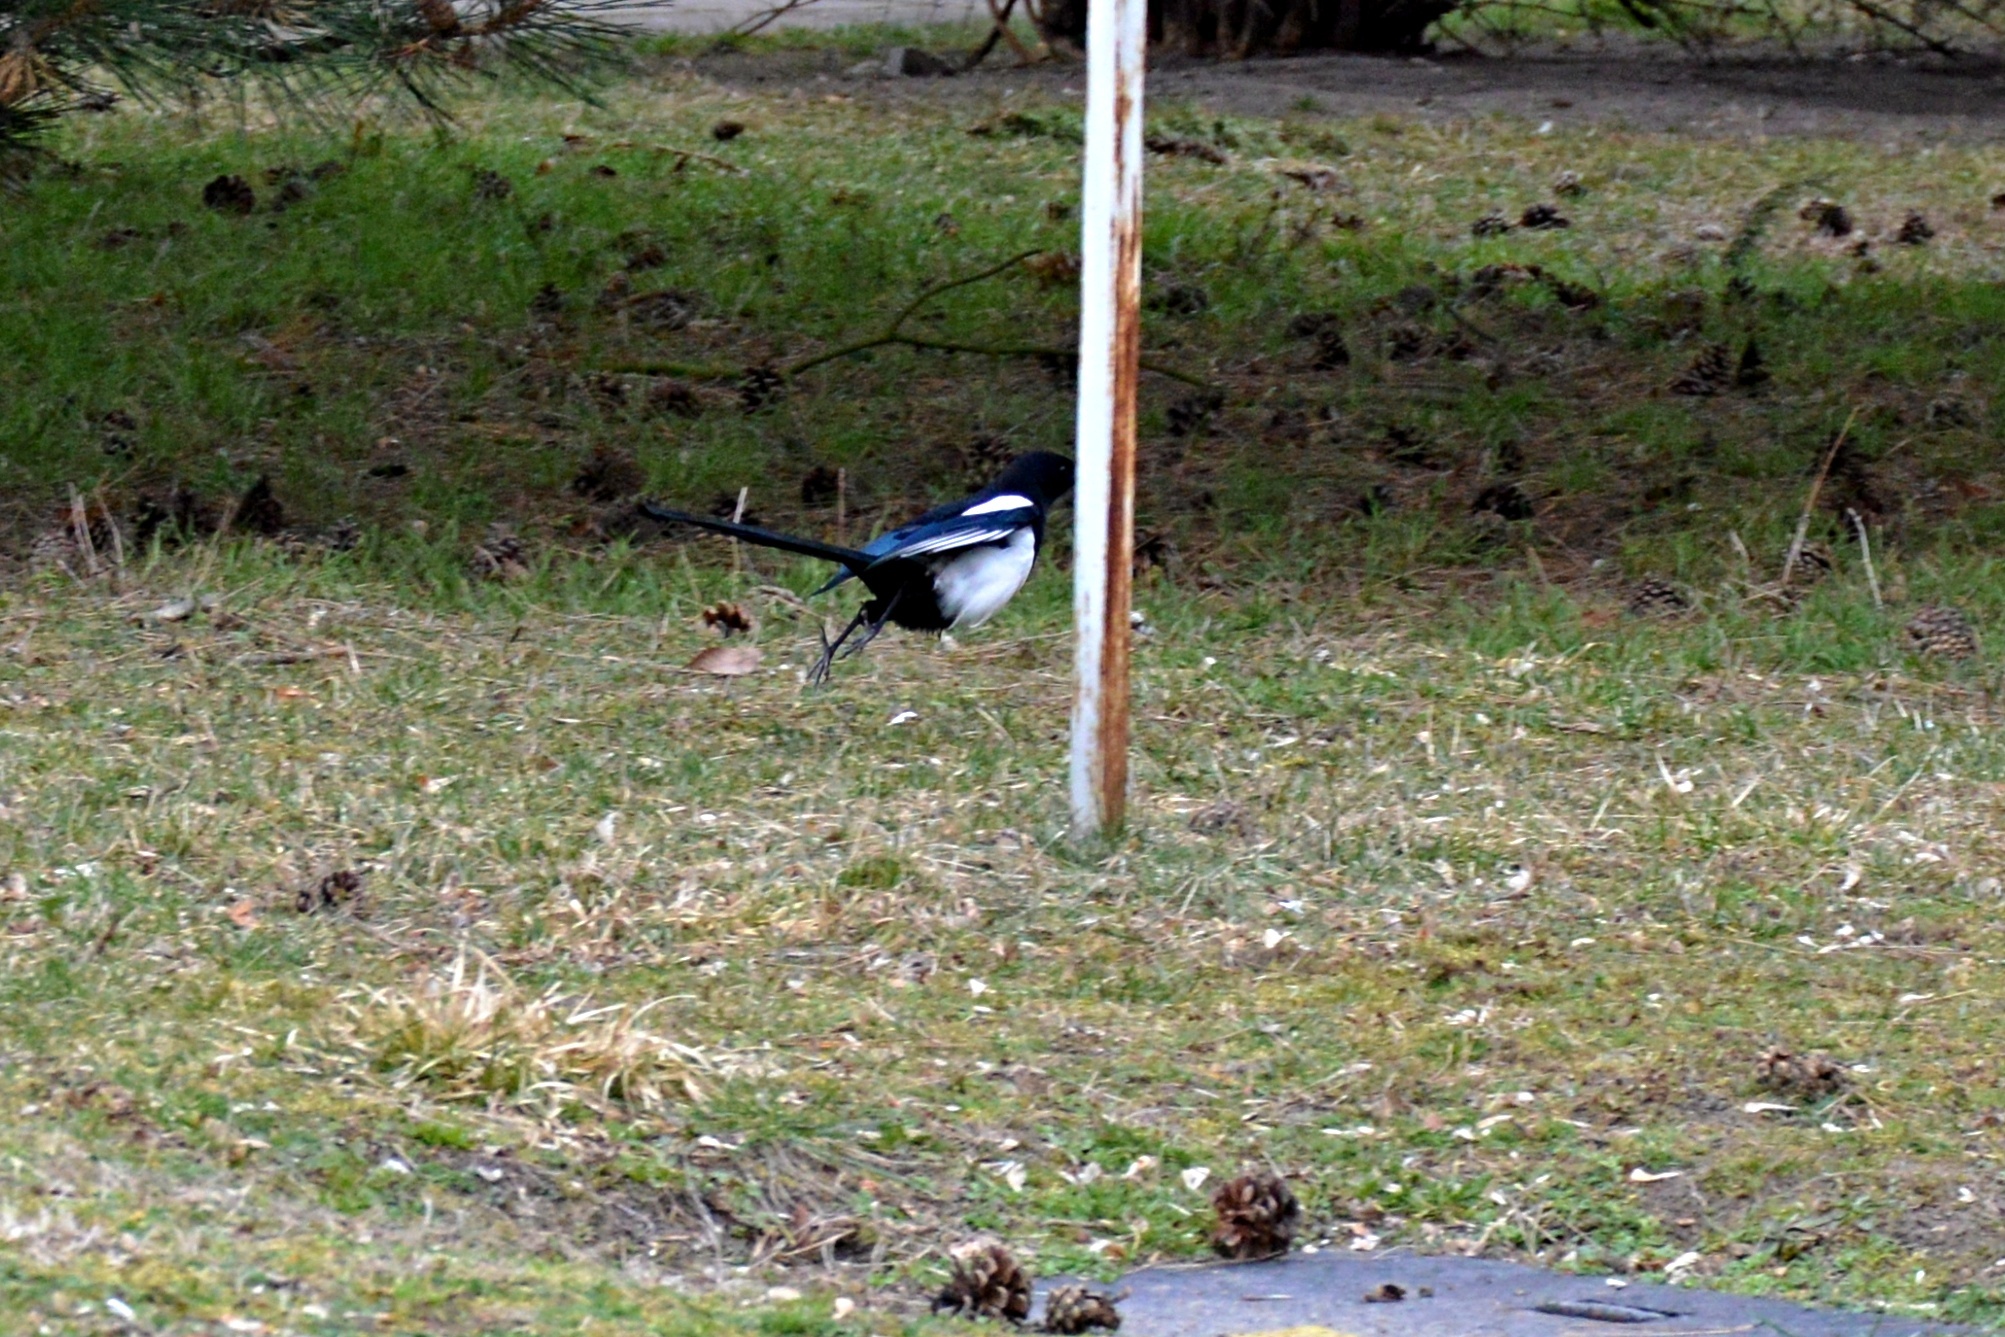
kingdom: Animalia
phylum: Chordata
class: Aves
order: Passeriformes
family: Corvidae
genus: Pica
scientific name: Pica pica
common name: Eurasian magpie
